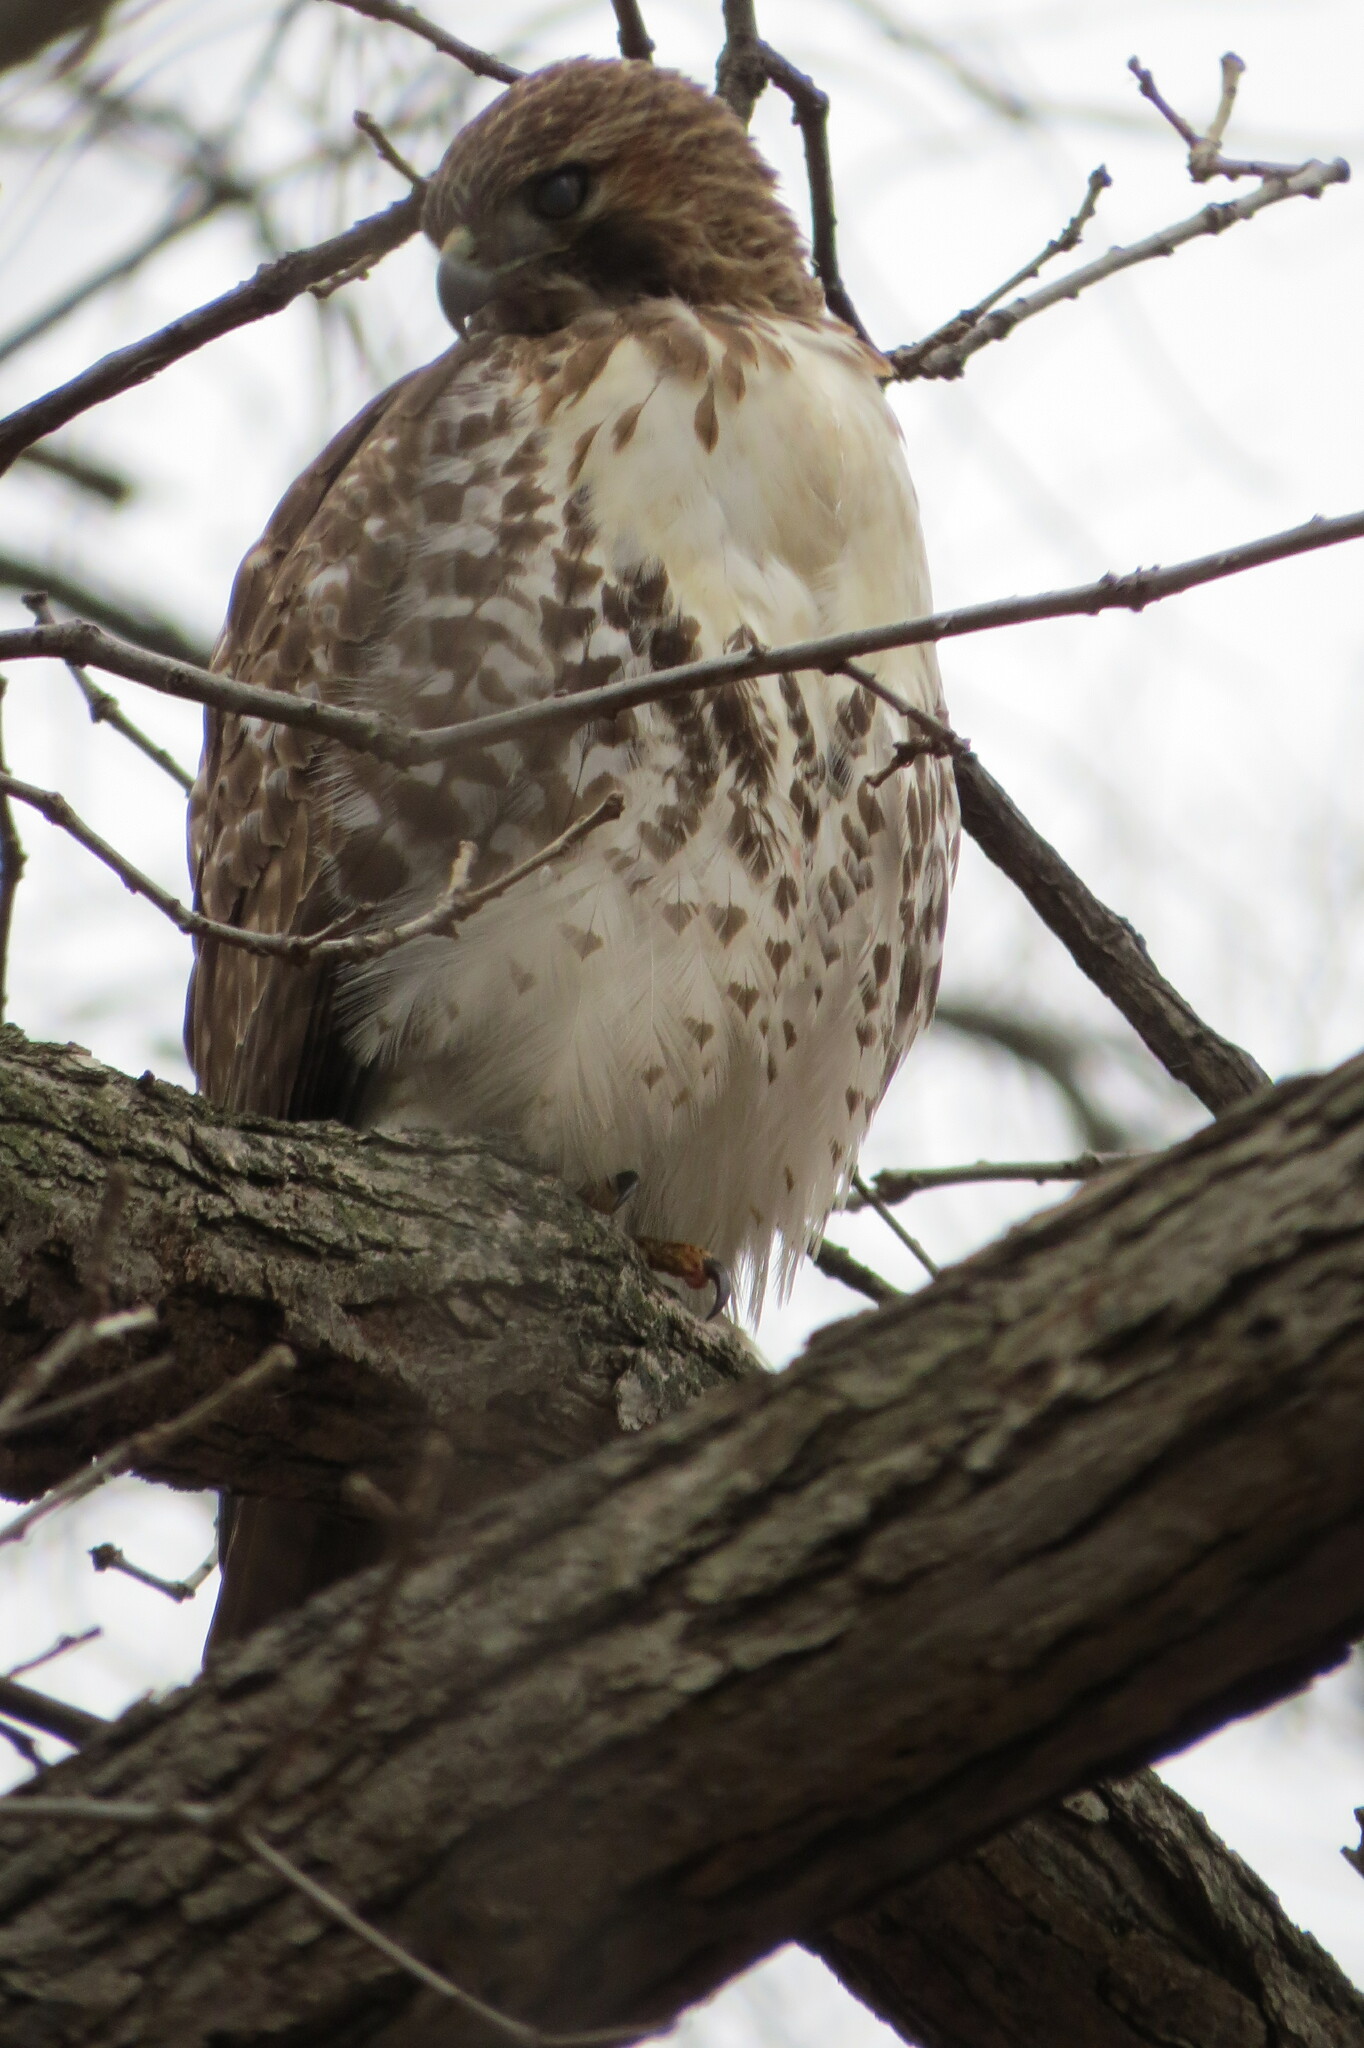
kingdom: Animalia
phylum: Chordata
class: Aves
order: Accipitriformes
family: Accipitridae
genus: Buteo
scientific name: Buteo jamaicensis
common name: Red-tailed hawk
